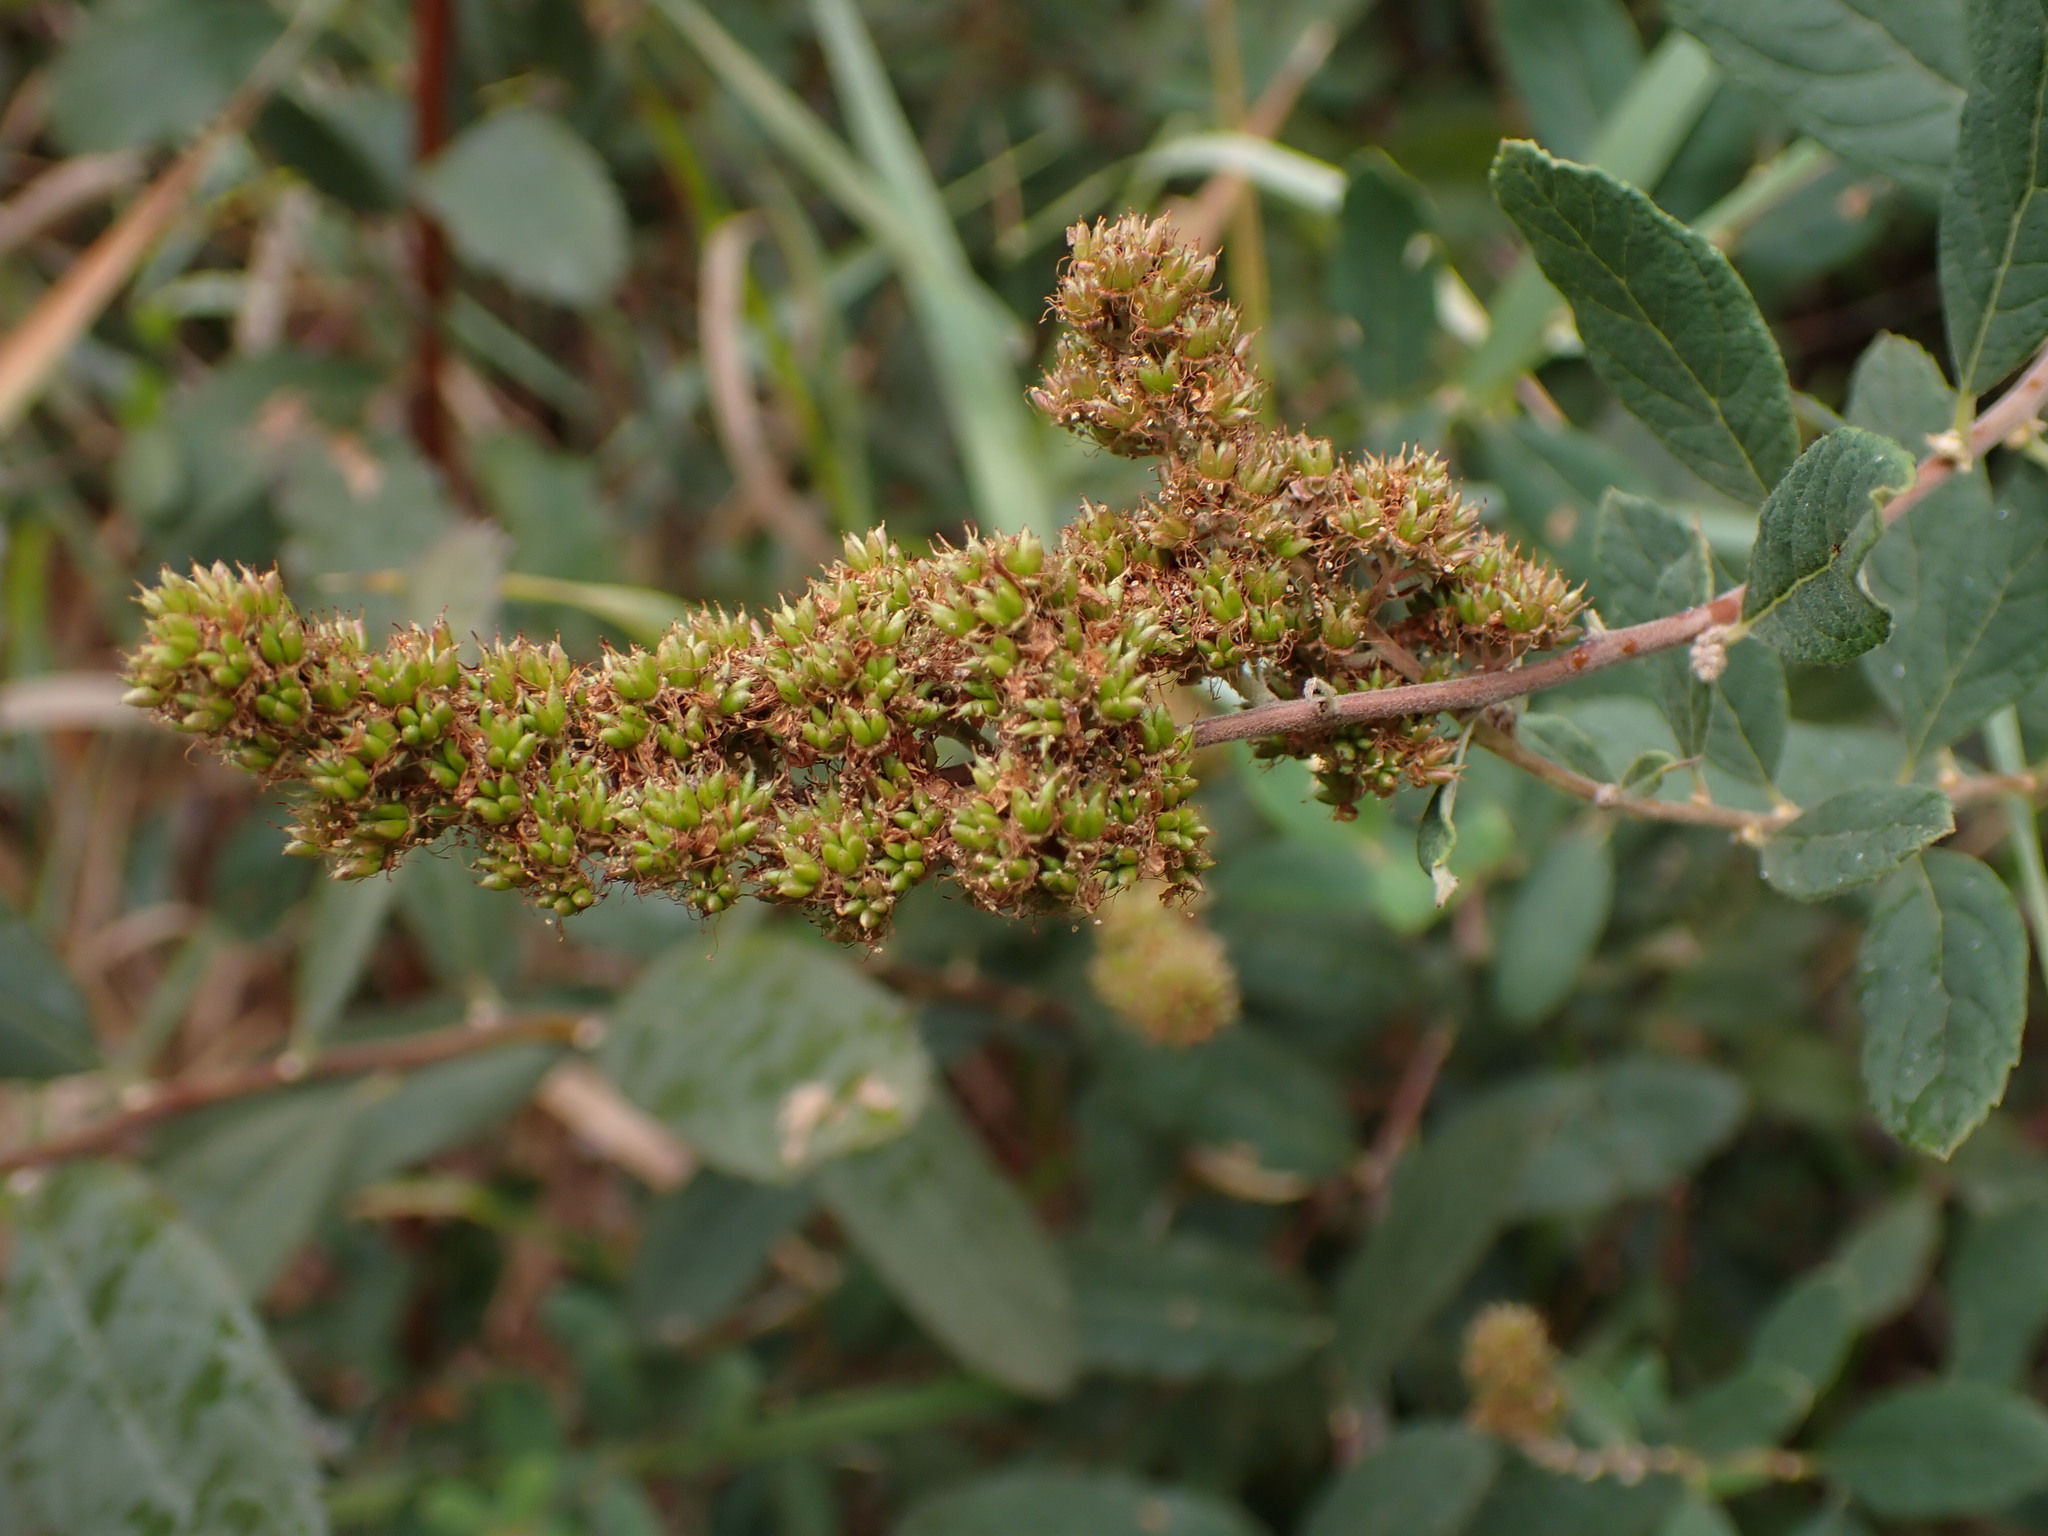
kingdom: Plantae
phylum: Tracheophyta
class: Magnoliopsida
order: Rosales
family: Rosaceae
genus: Spiraea
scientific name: Spiraea douglasii
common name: Steeplebush
